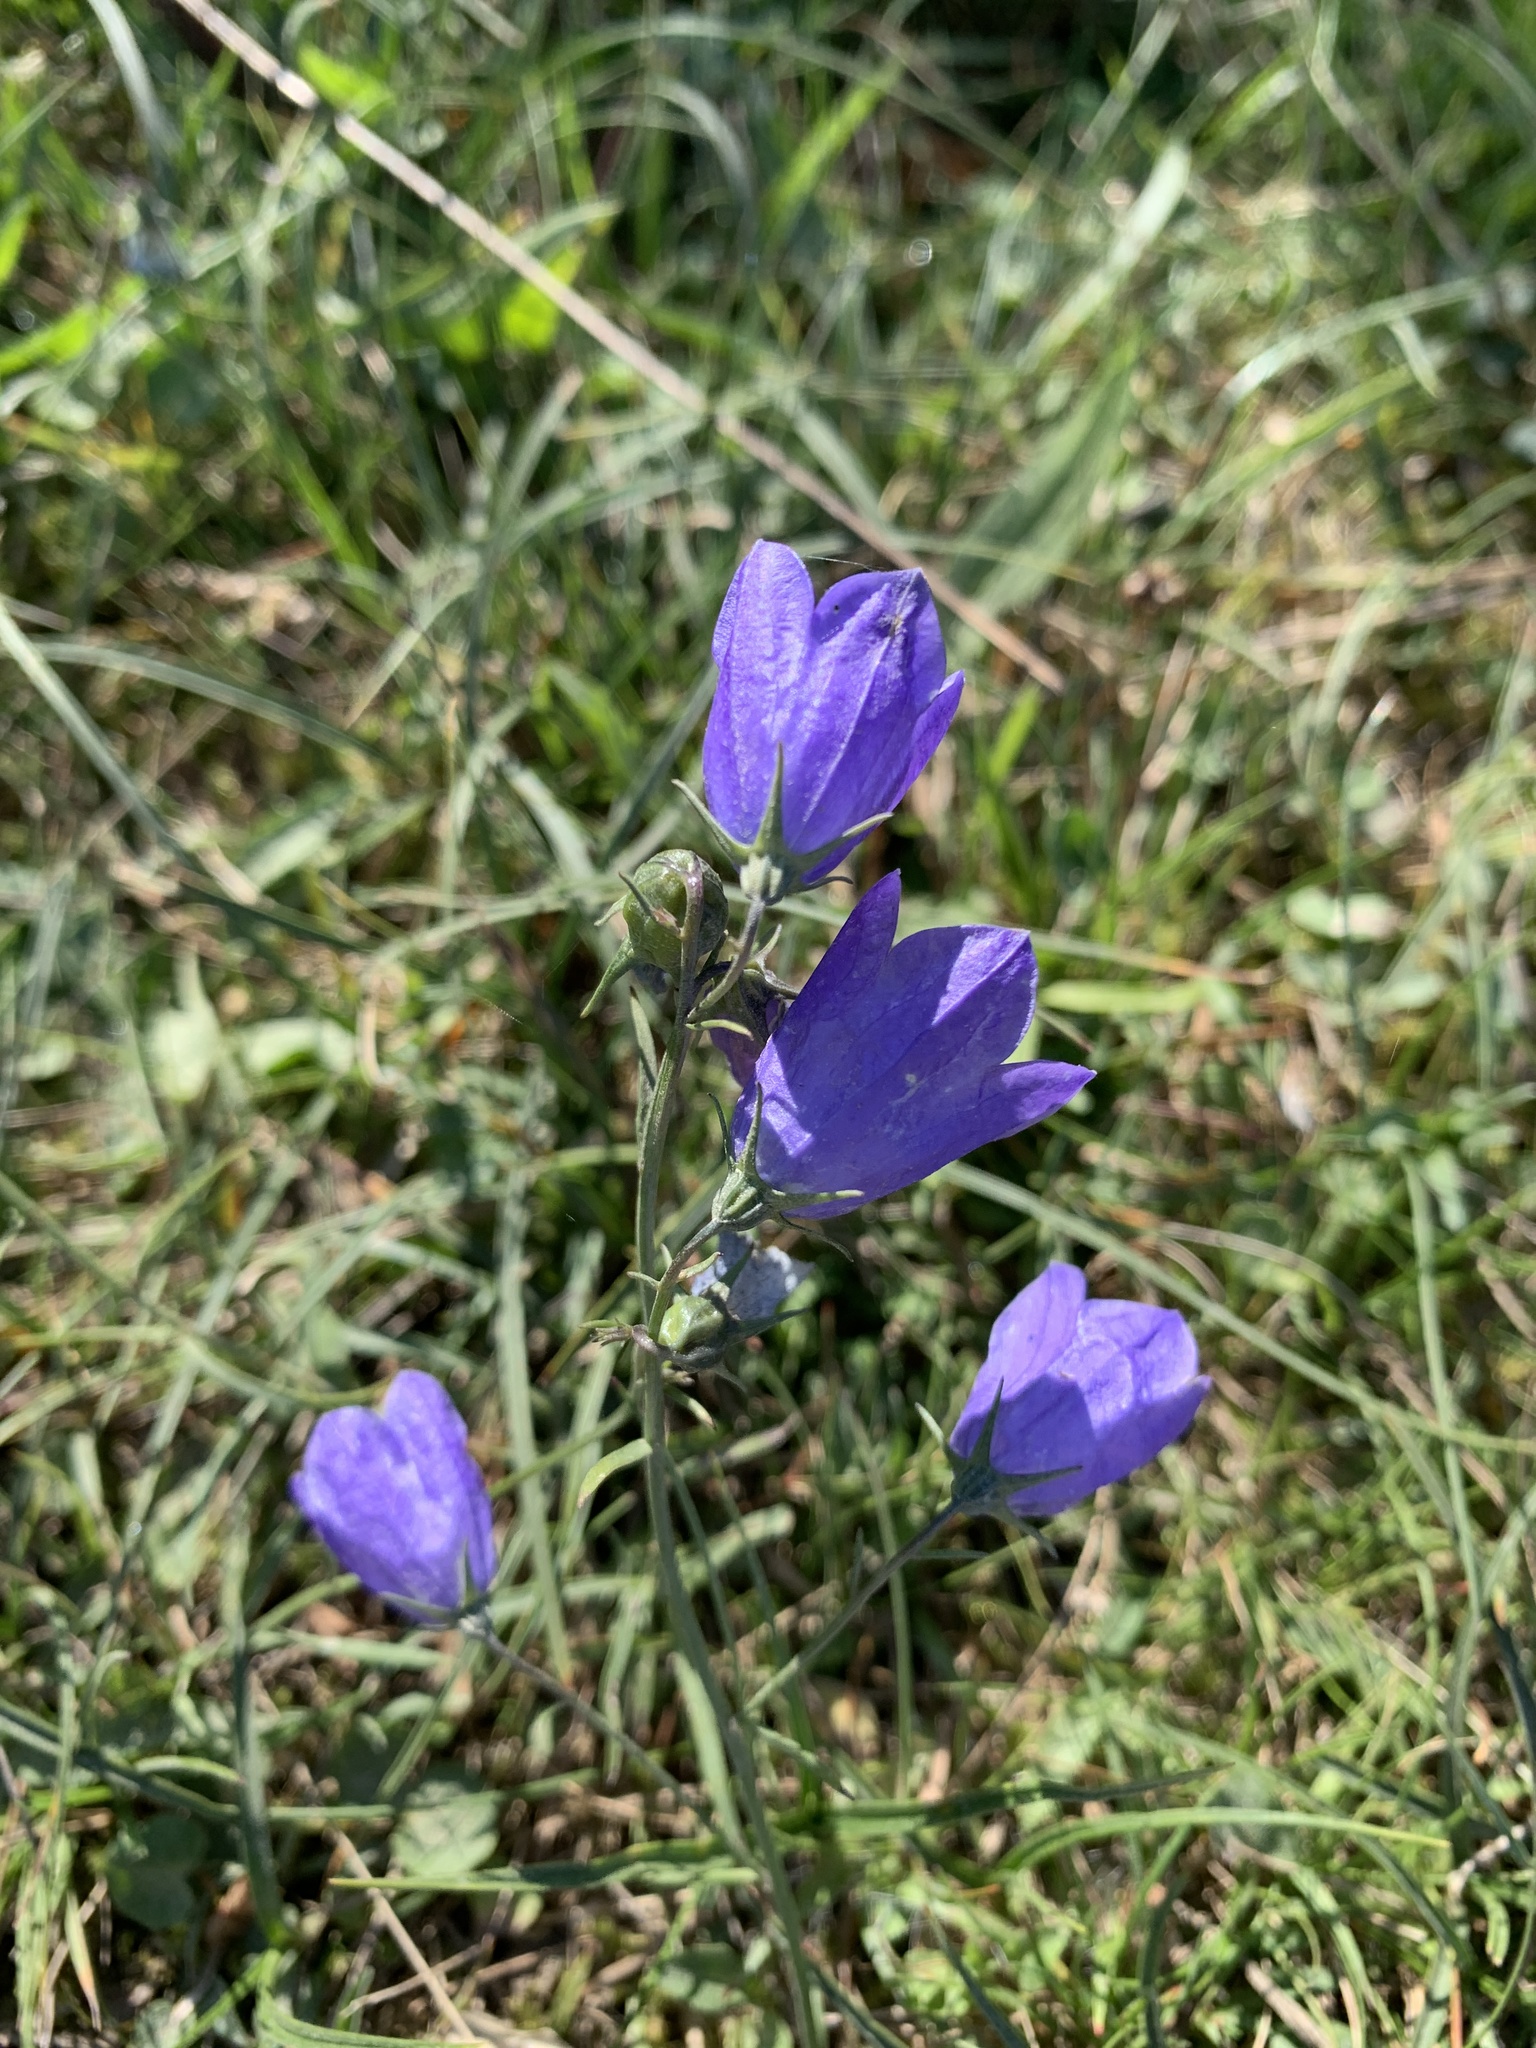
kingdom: Plantae
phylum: Tracheophyta
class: Magnoliopsida
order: Asterales
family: Campanulaceae
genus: Campanula
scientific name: Campanula rotundifolia
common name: Harebell
